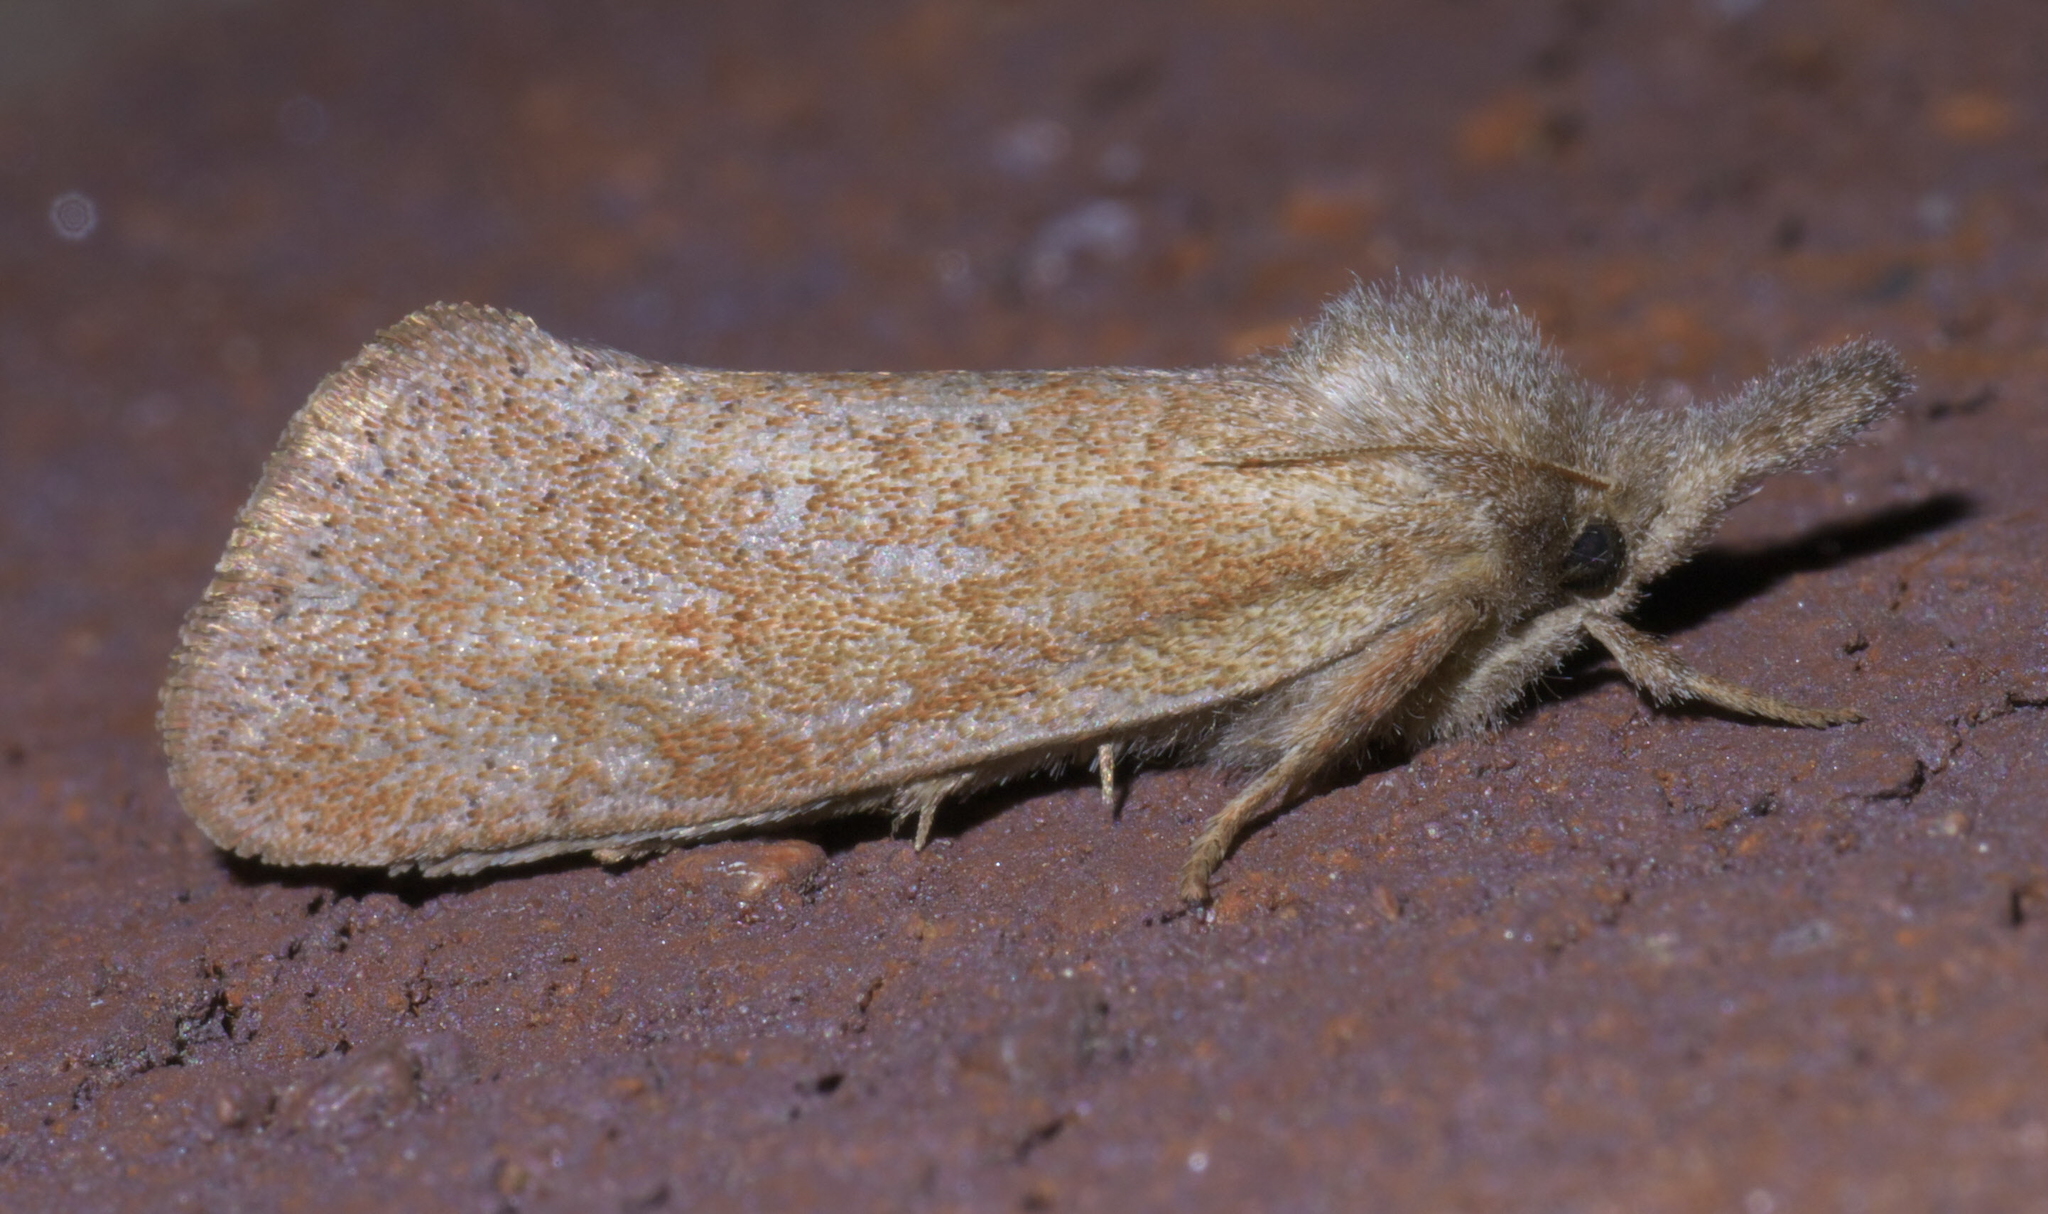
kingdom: Animalia
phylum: Arthropoda
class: Insecta
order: Lepidoptera
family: Tineidae
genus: Acrolophus
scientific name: Acrolophus plumifrontella
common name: Eastern grass tubeworm moth
